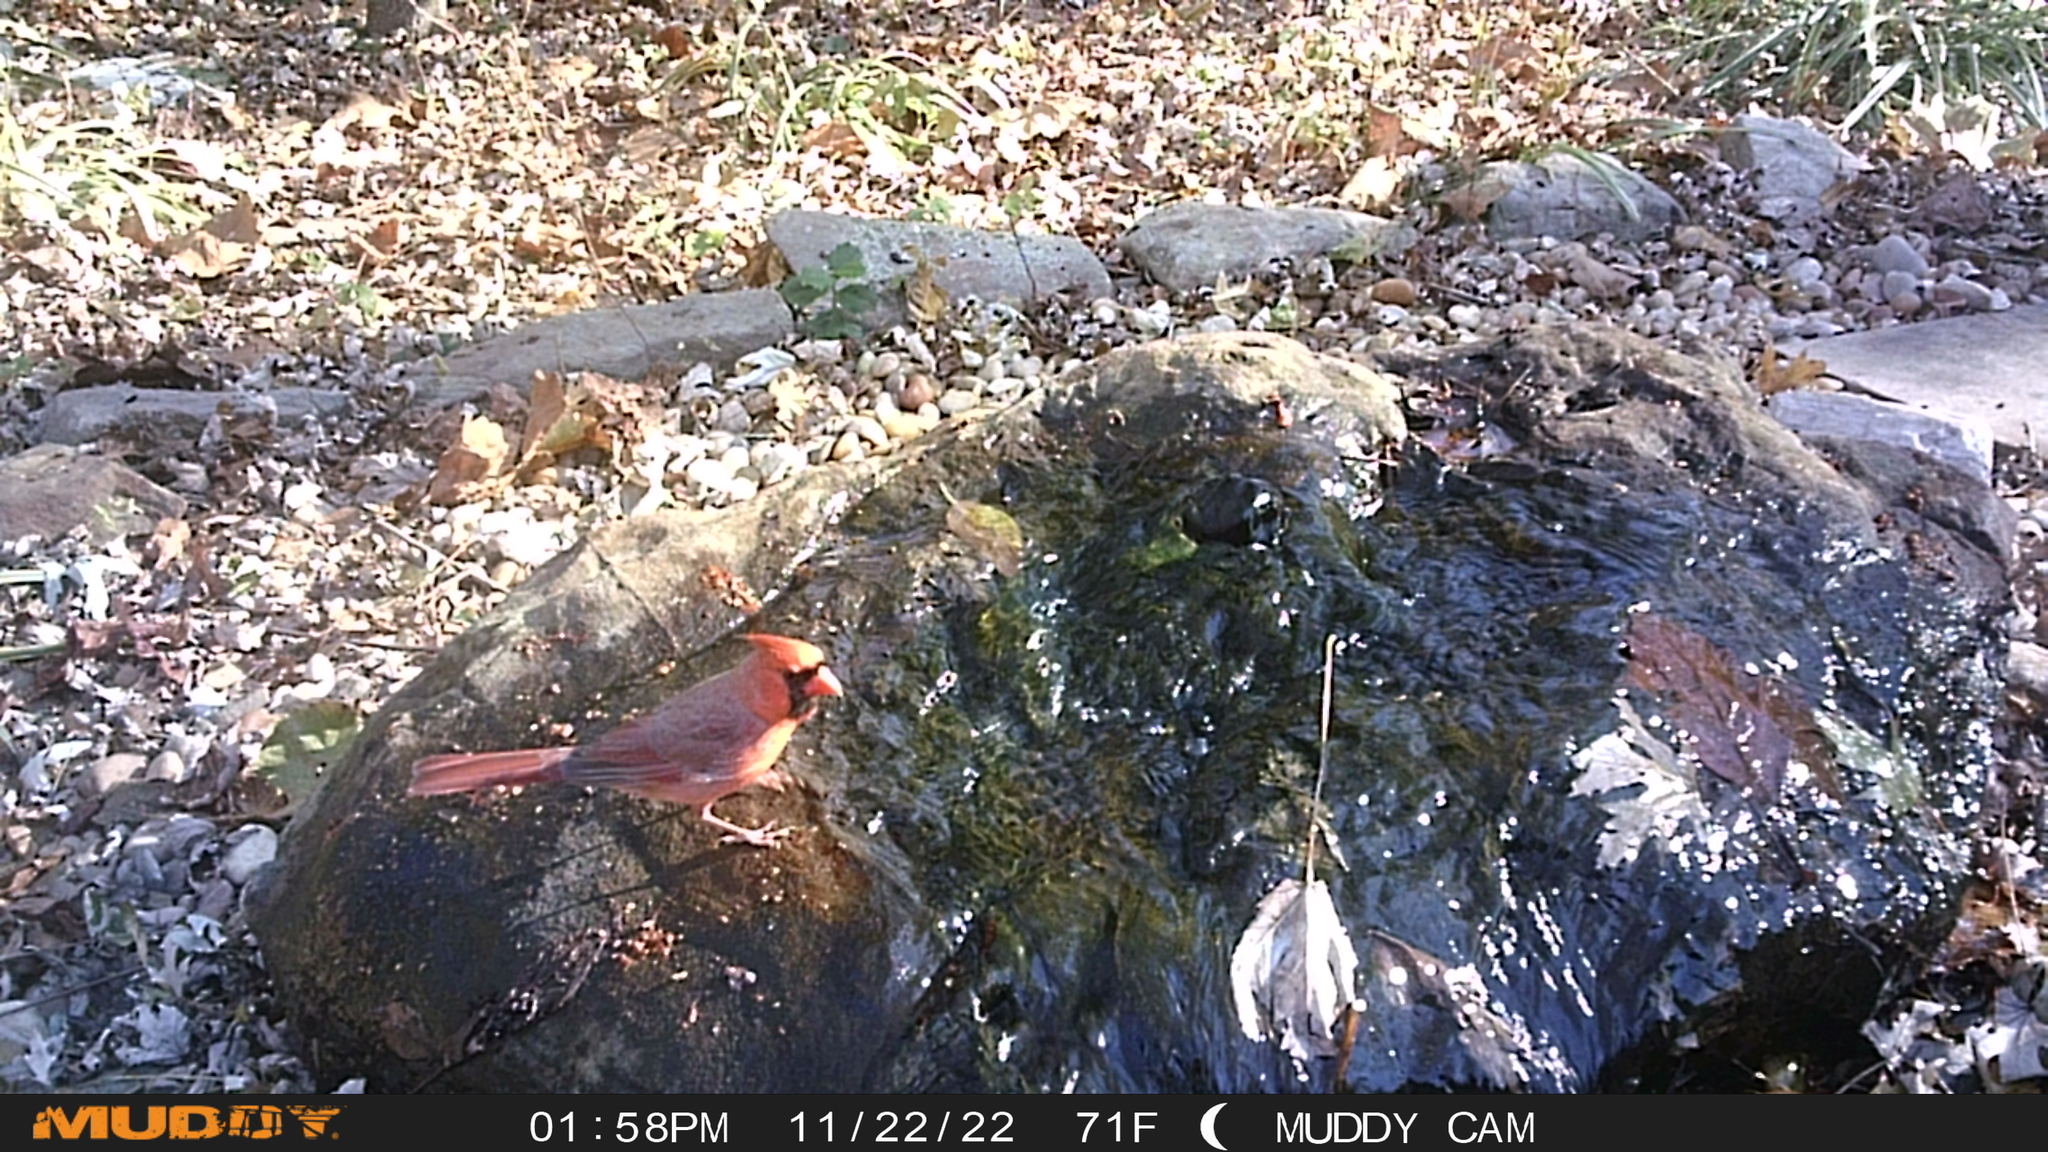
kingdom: Animalia
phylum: Chordata
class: Aves
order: Passeriformes
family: Cardinalidae
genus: Cardinalis
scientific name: Cardinalis cardinalis
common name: Northern cardinal
